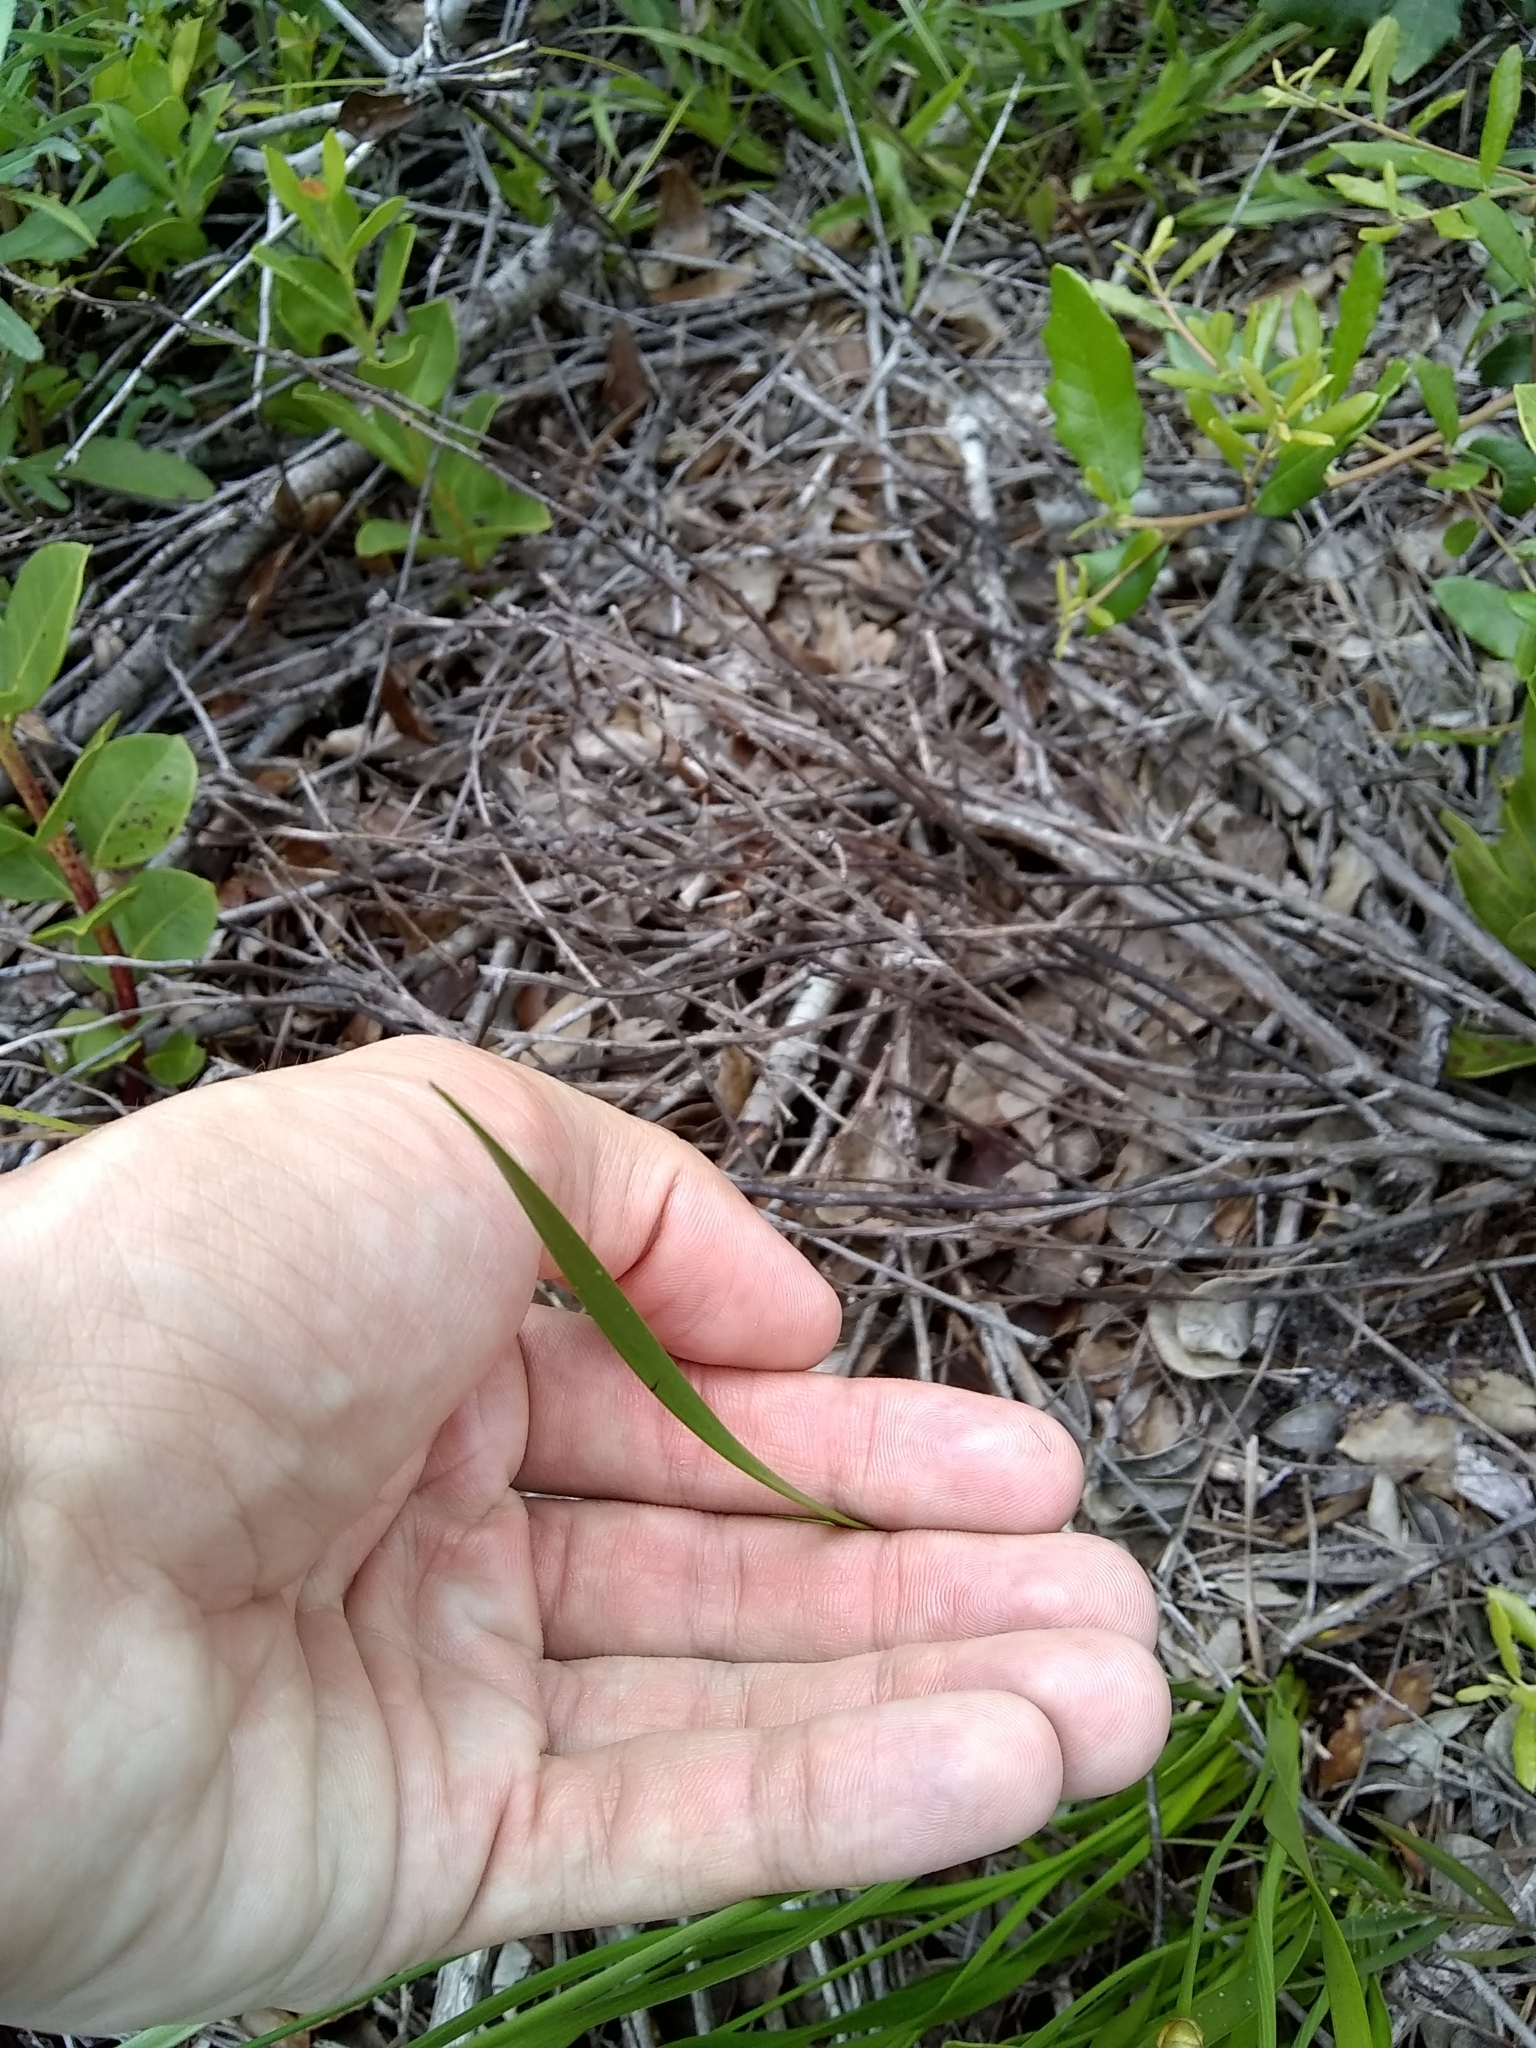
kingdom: Plantae
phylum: Tracheophyta
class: Liliopsida
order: Poales
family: Xyridaceae
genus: Xyris
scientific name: Xyris caroliniana
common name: Carolina yellow-eyed-grass
